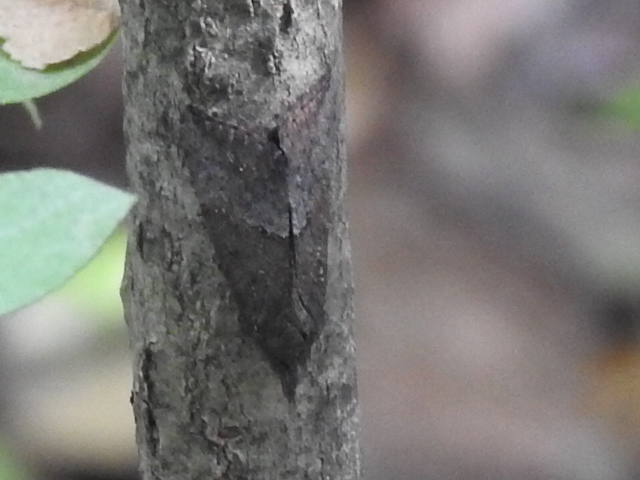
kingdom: Animalia
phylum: Arthropoda
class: Insecta
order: Lepidoptera
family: Erebidae
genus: Hypena
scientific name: Hypena scabra
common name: Green cloverworm
